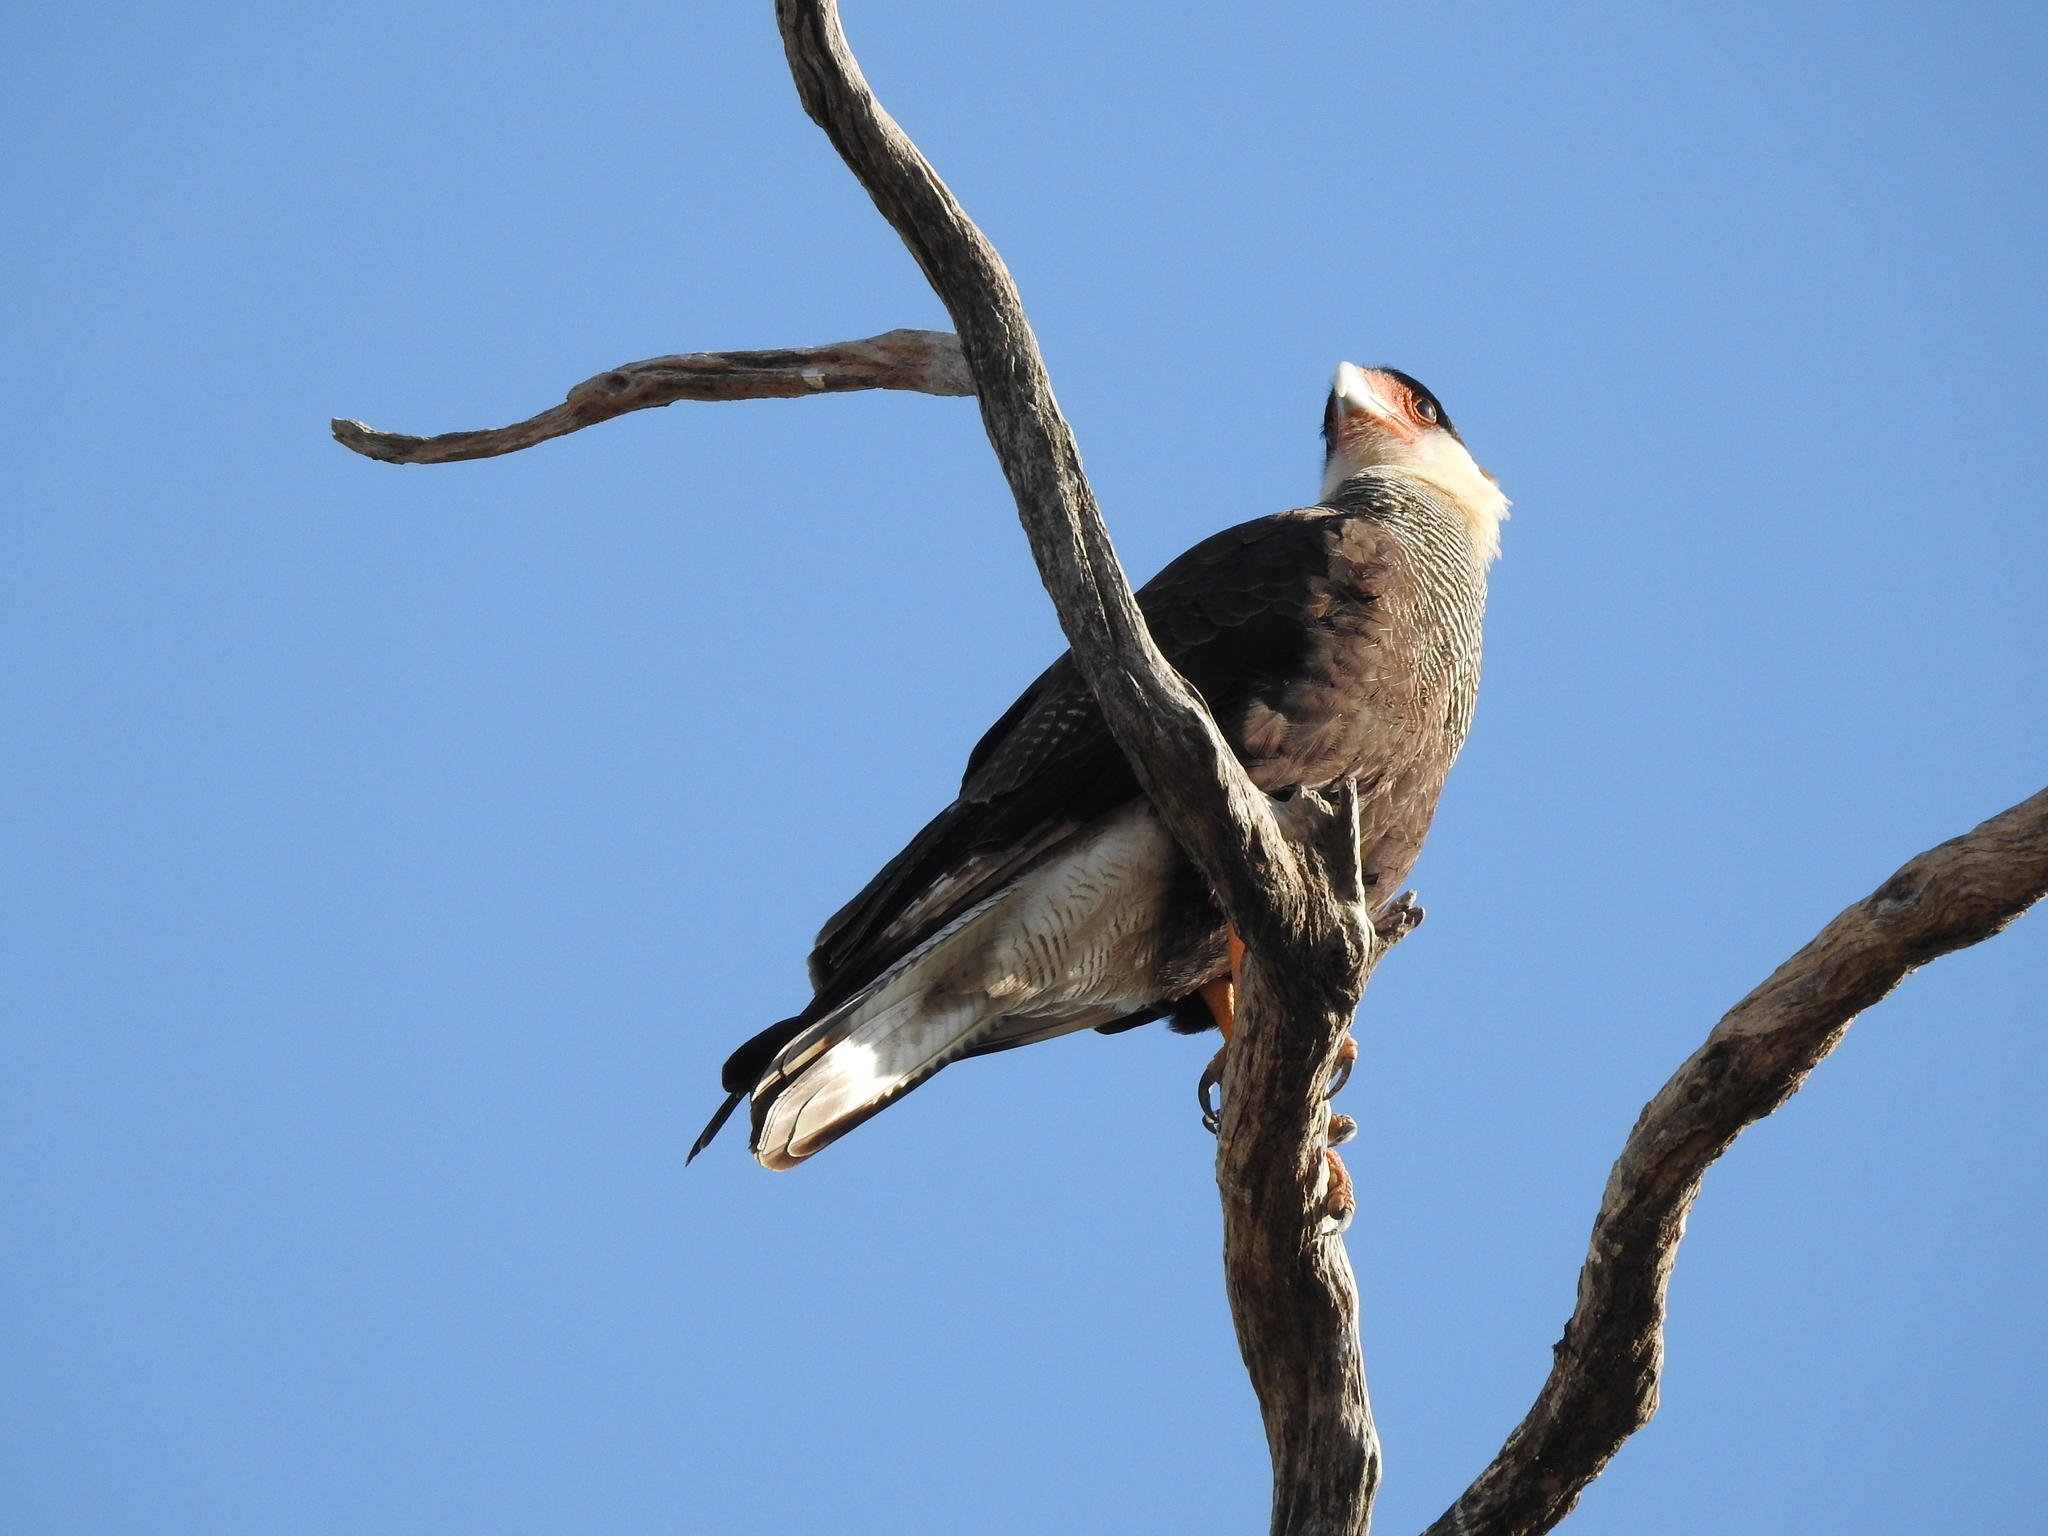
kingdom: Animalia
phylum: Chordata
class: Aves
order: Falconiformes
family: Falconidae
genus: Caracara
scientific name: Caracara plancus
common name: Southern caracara
